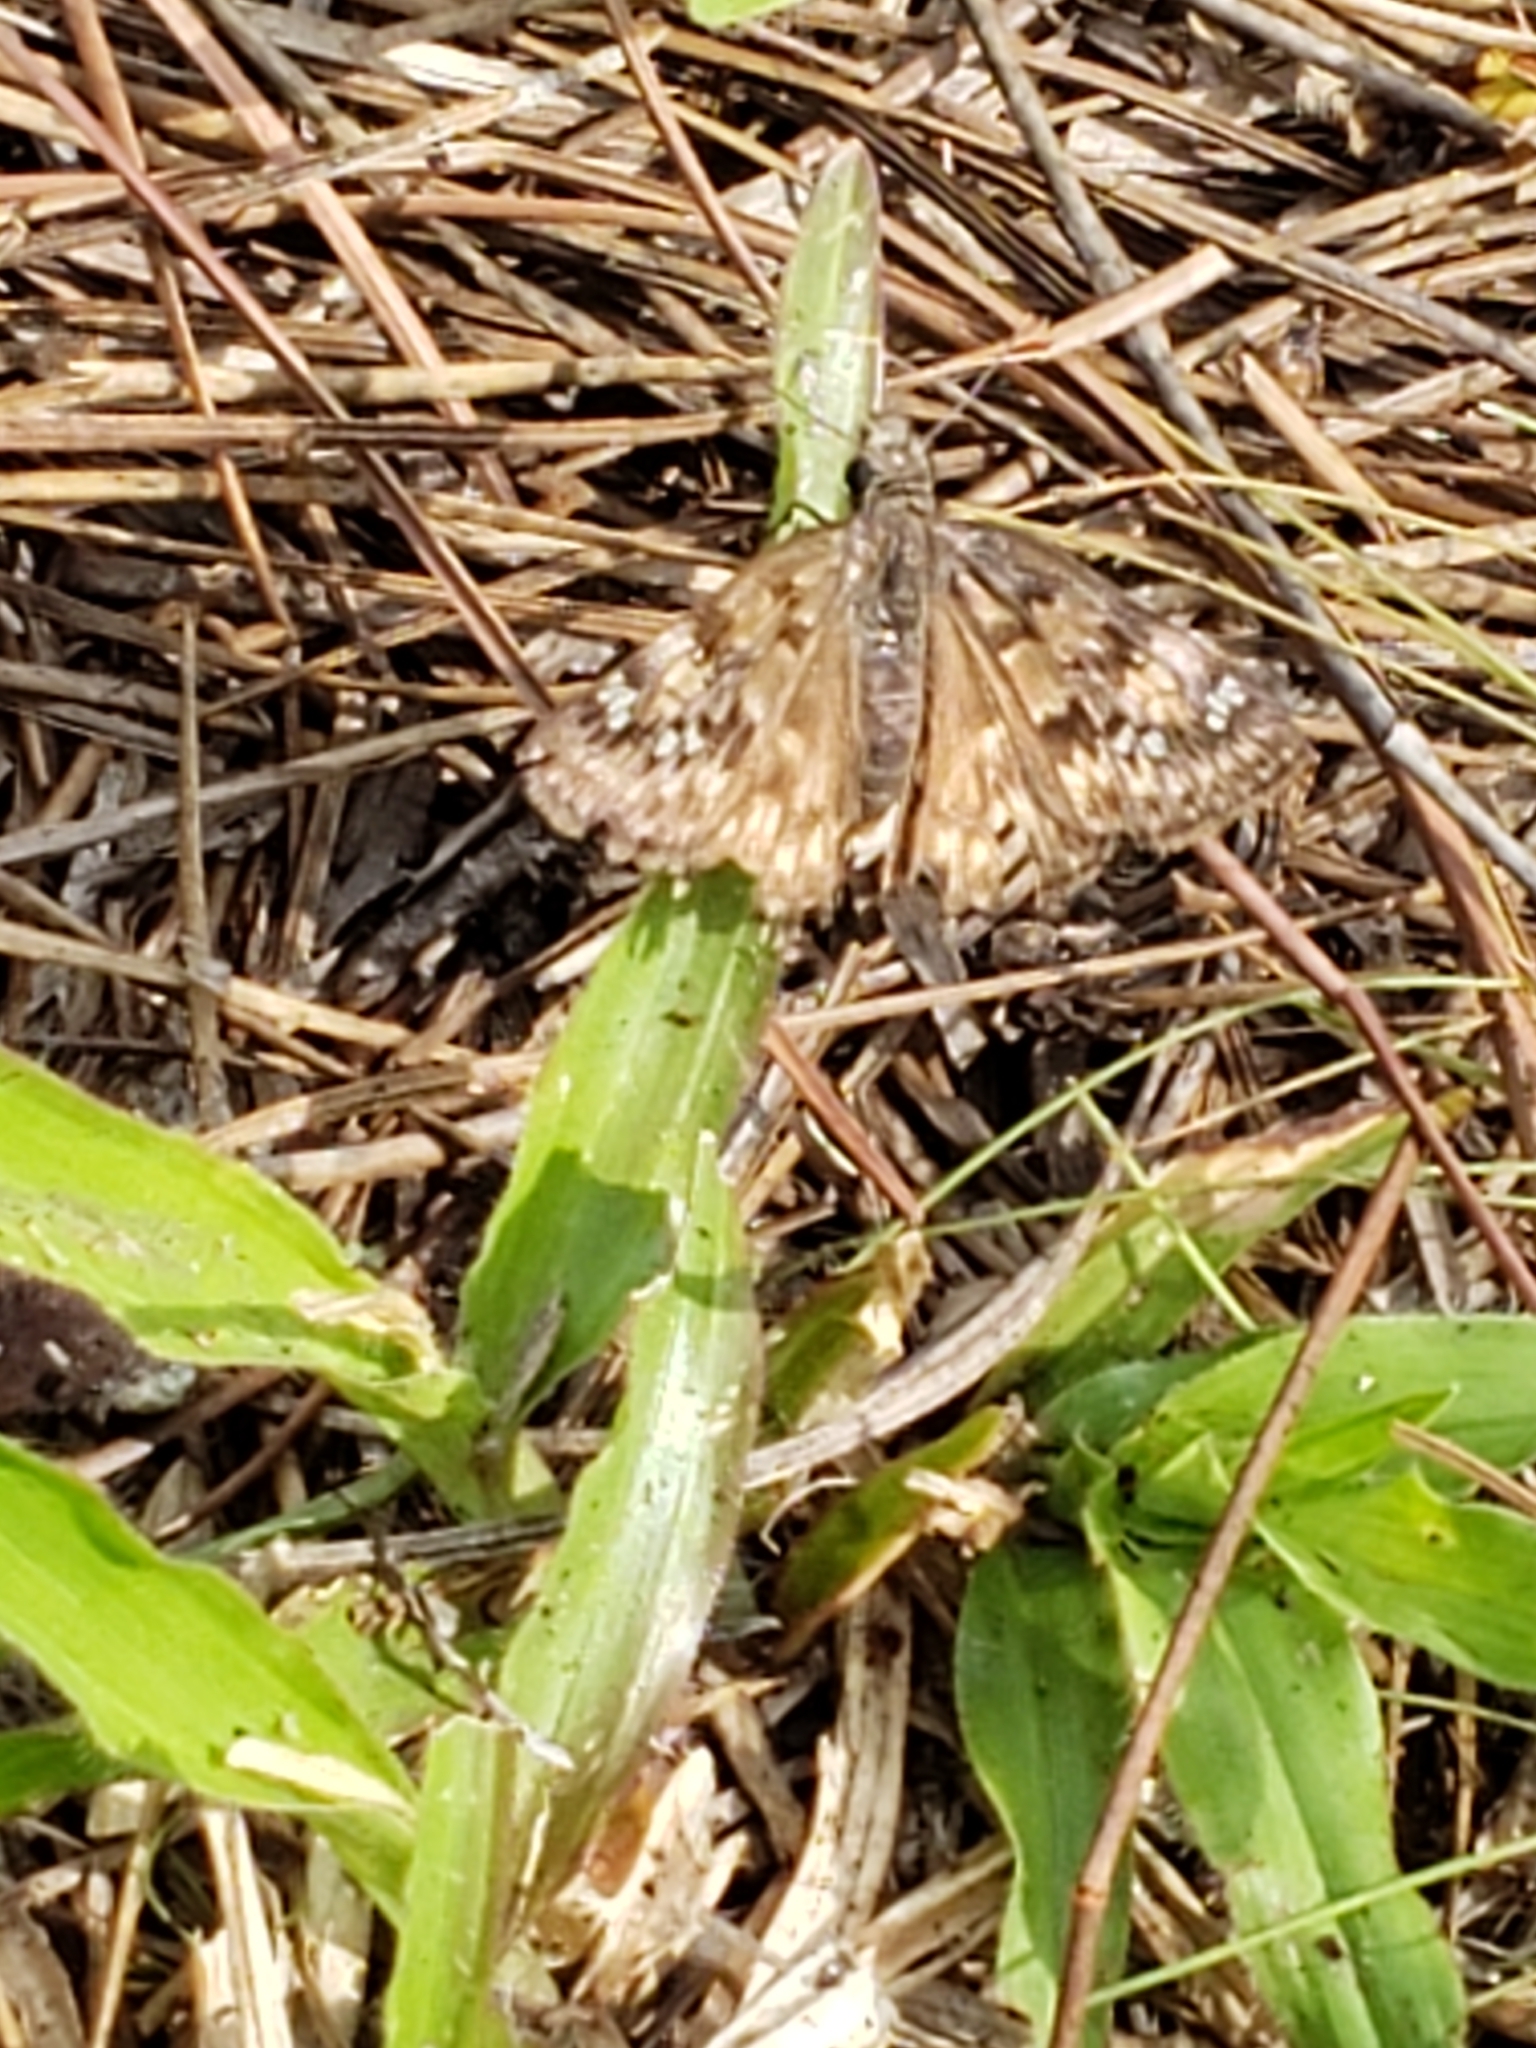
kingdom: Animalia
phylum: Arthropoda
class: Insecta
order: Lepidoptera
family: Hesperiidae
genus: Erynnis
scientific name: Erynnis horatius
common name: Horace's duskywing
